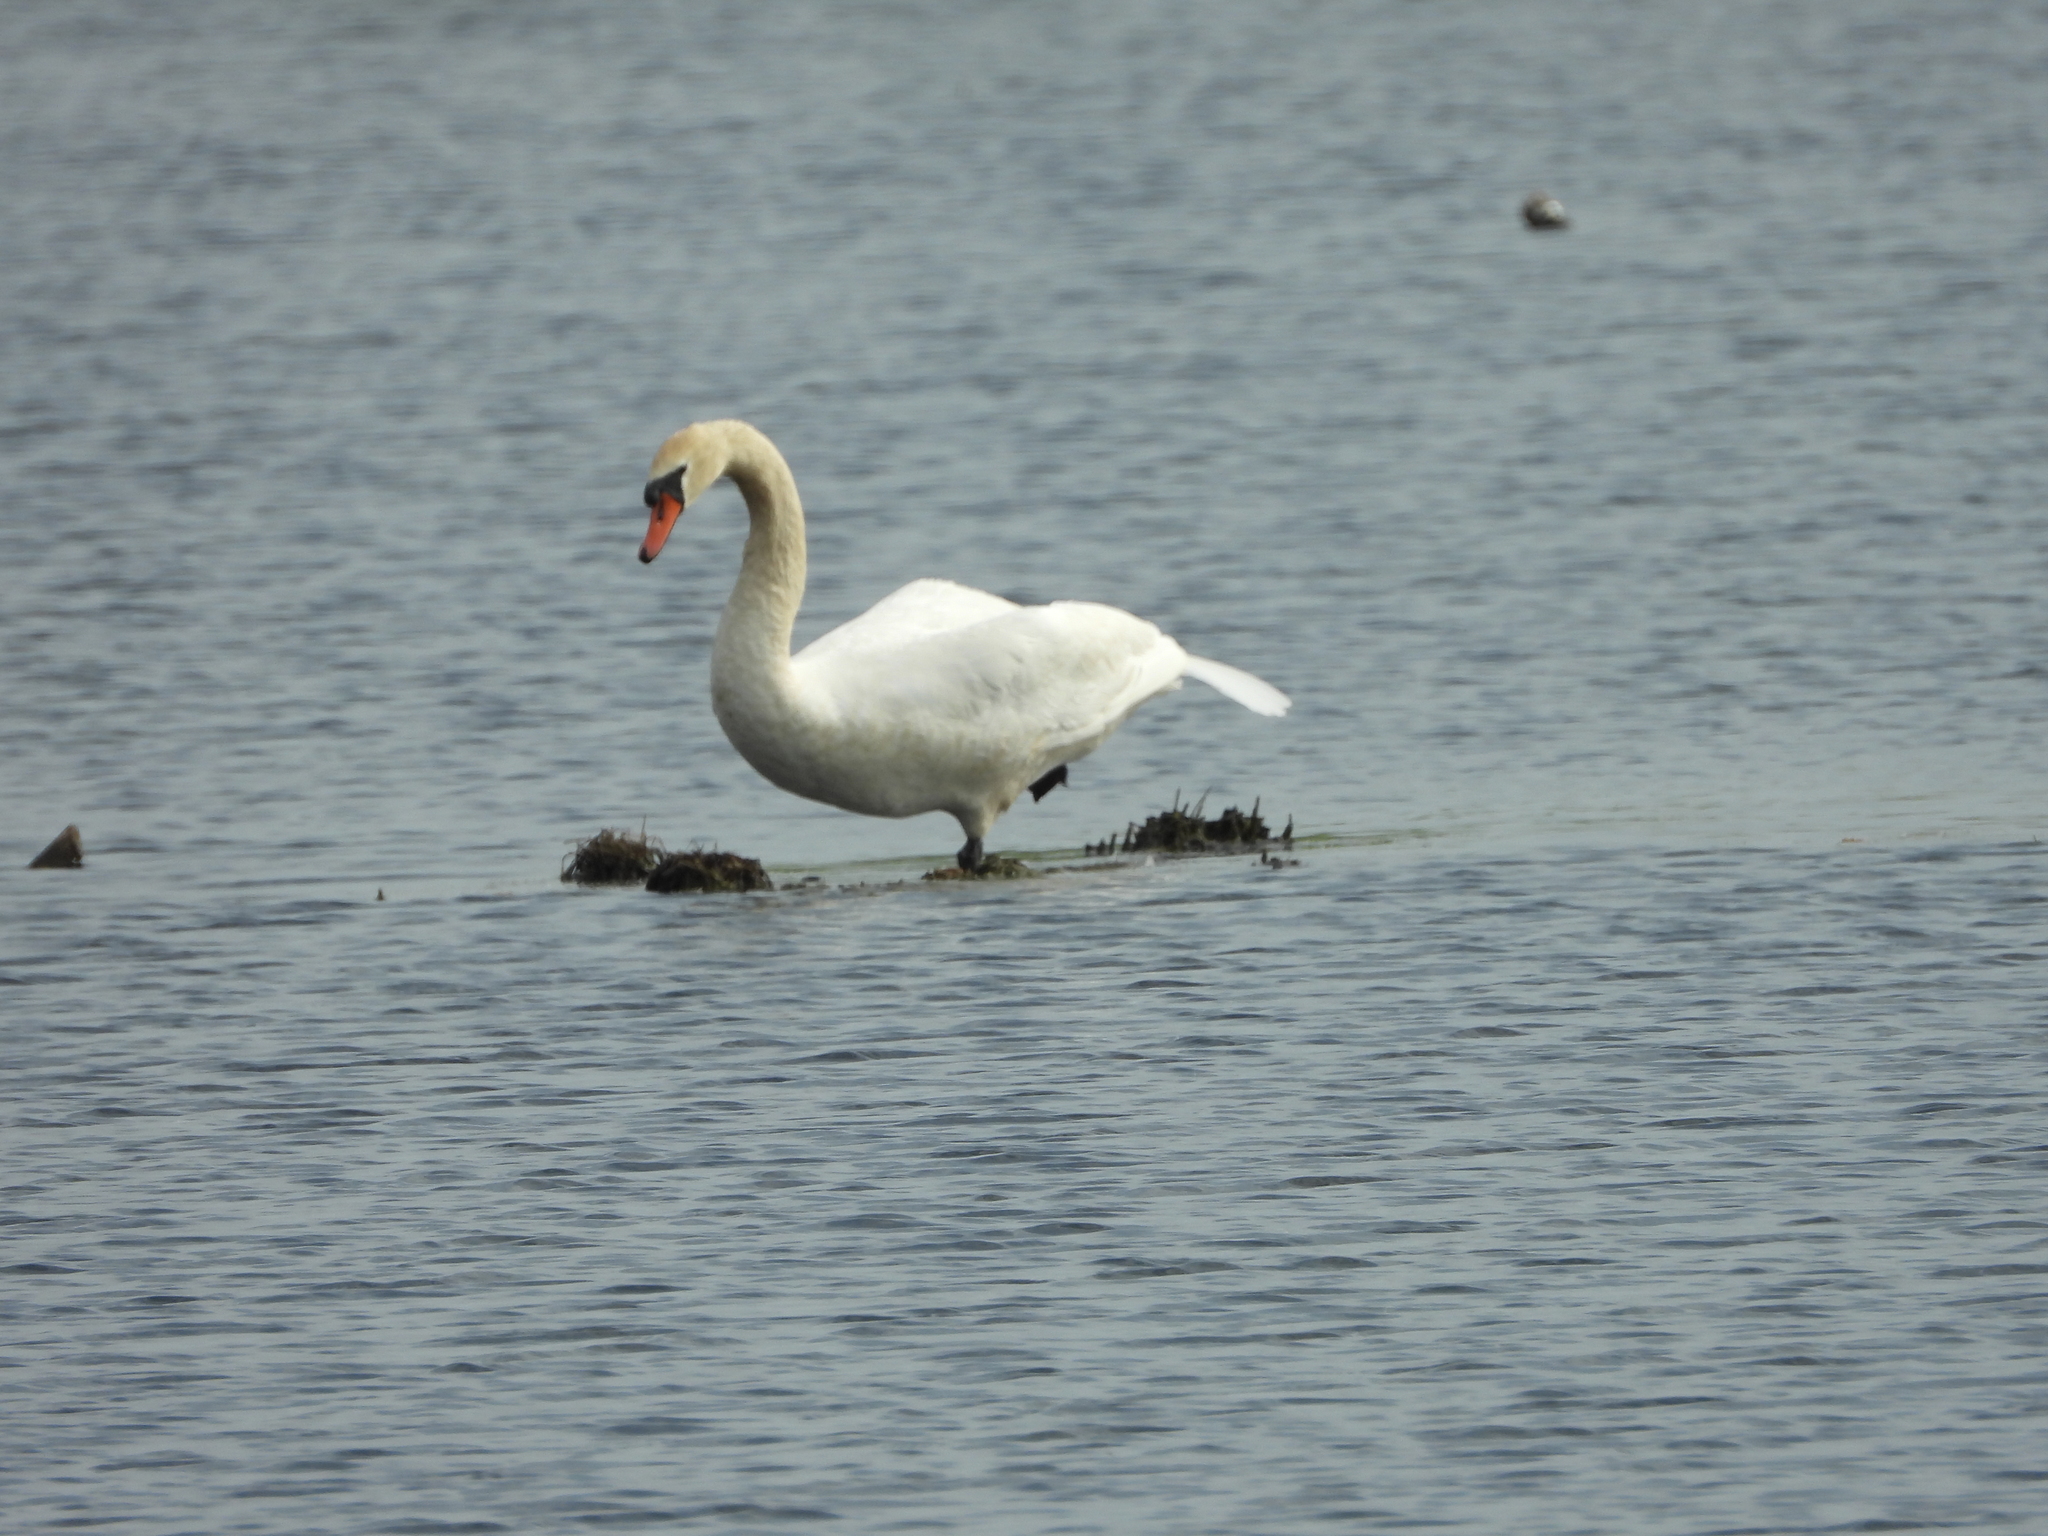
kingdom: Animalia
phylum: Chordata
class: Aves
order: Anseriformes
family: Anatidae
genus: Cygnus
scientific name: Cygnus olor
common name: Mute swan
